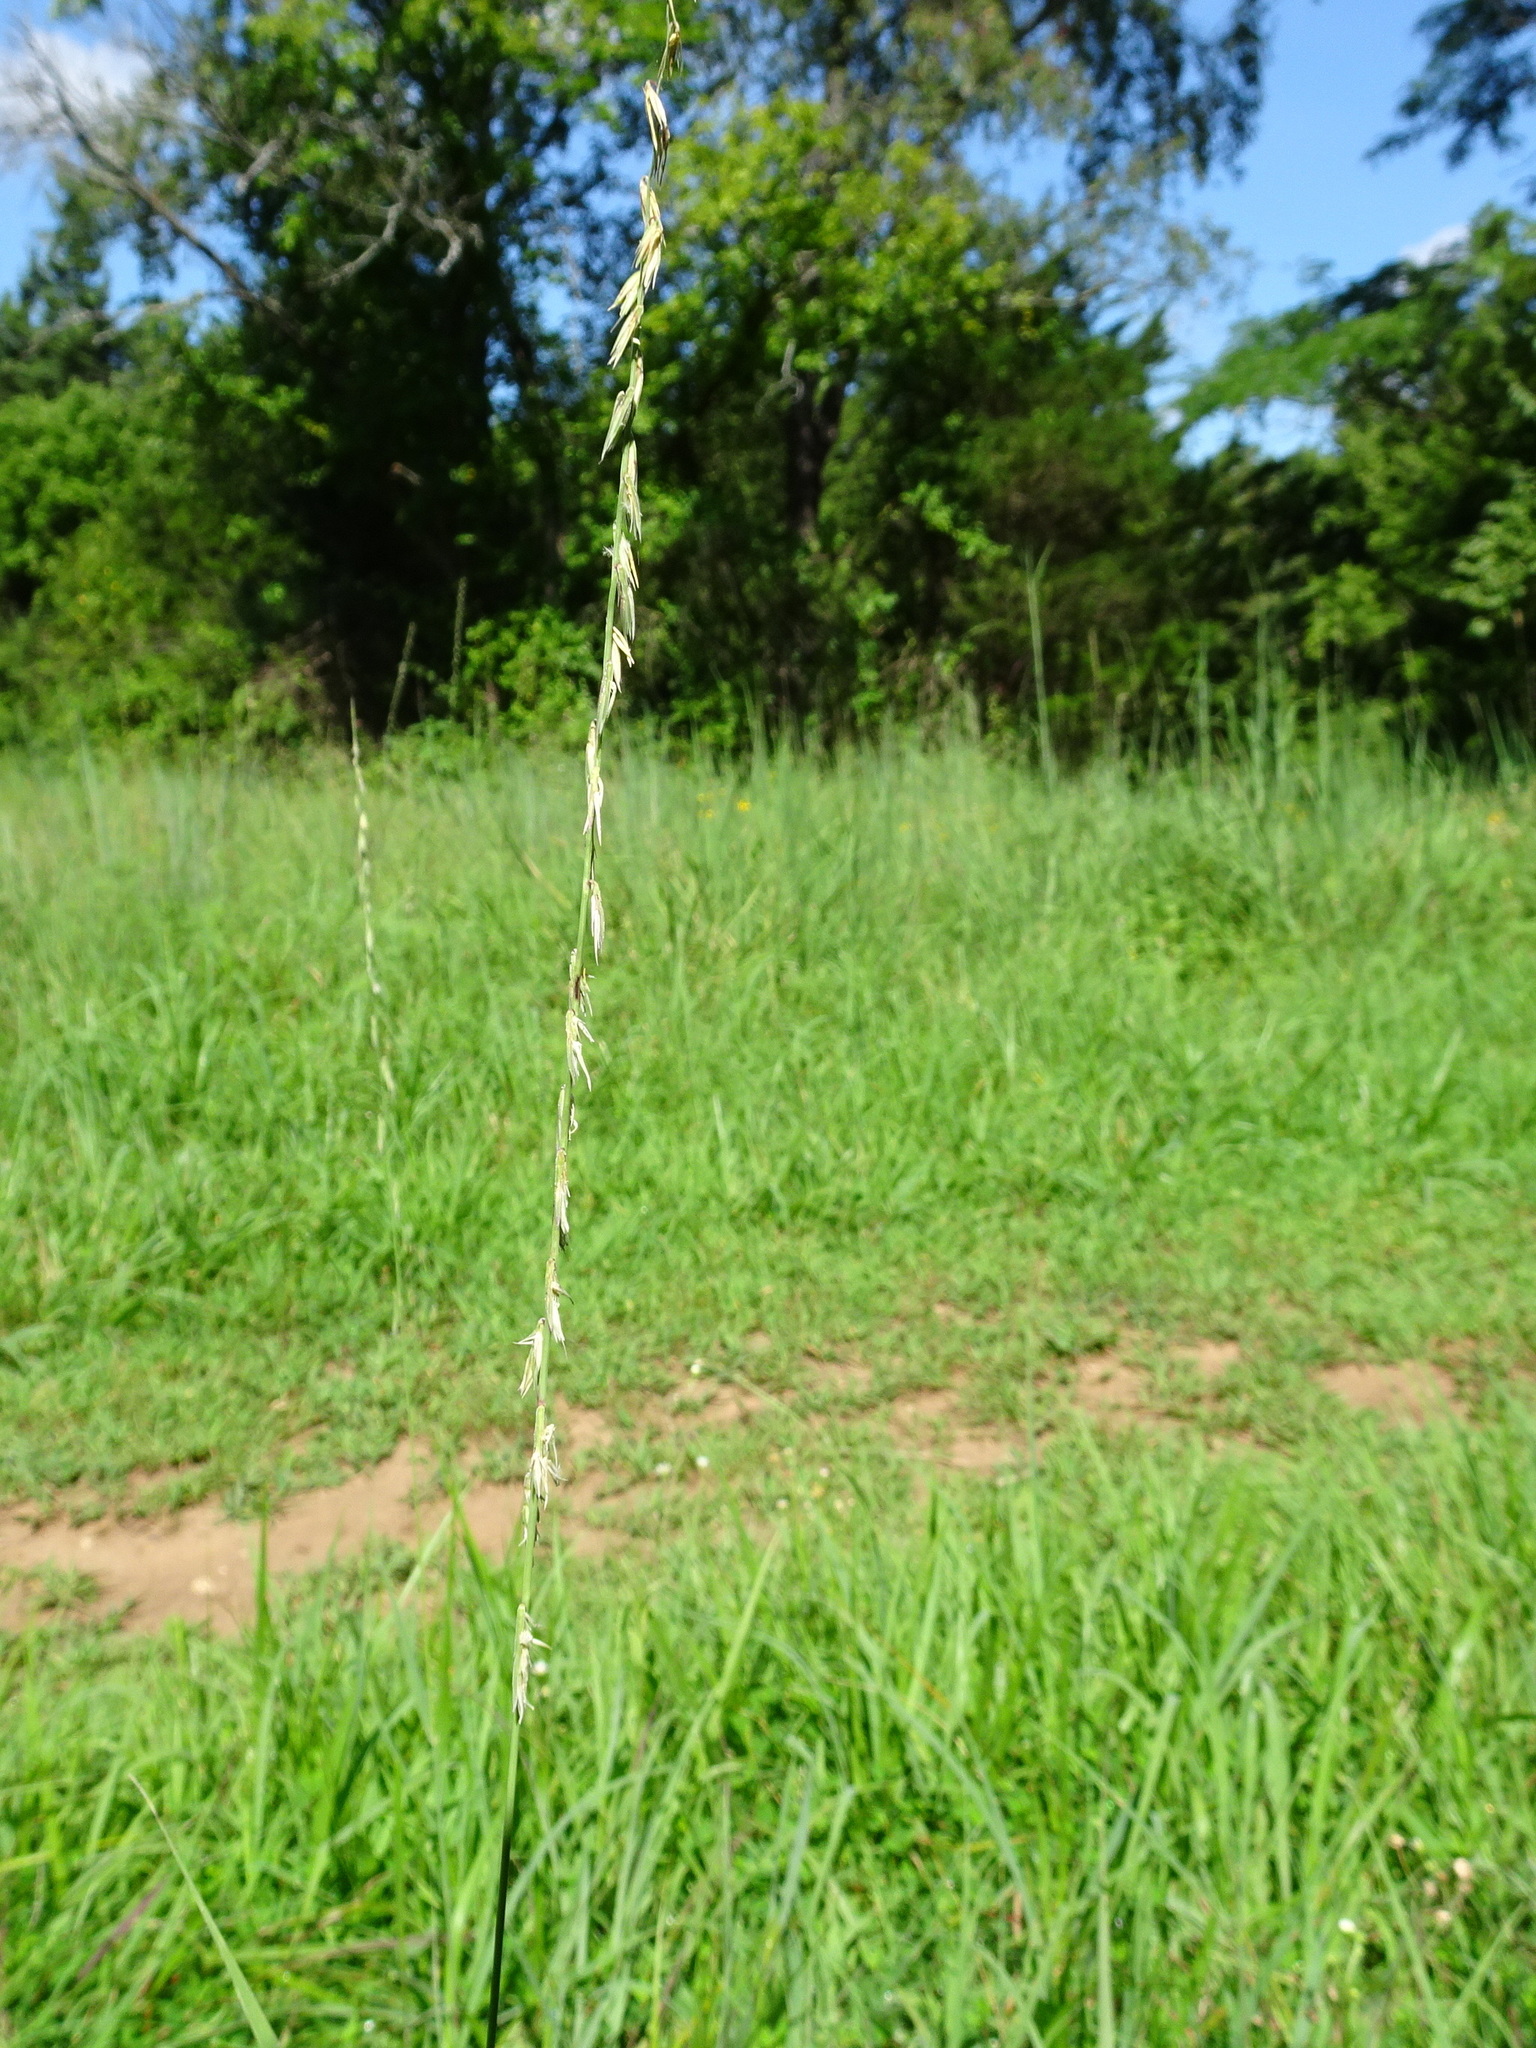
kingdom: Plantae
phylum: Tracheophyta
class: Liliopsida
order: Poales
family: Poaceae
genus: Bouteloua
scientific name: Bouteloua curtipendula
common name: Side-oats grama
